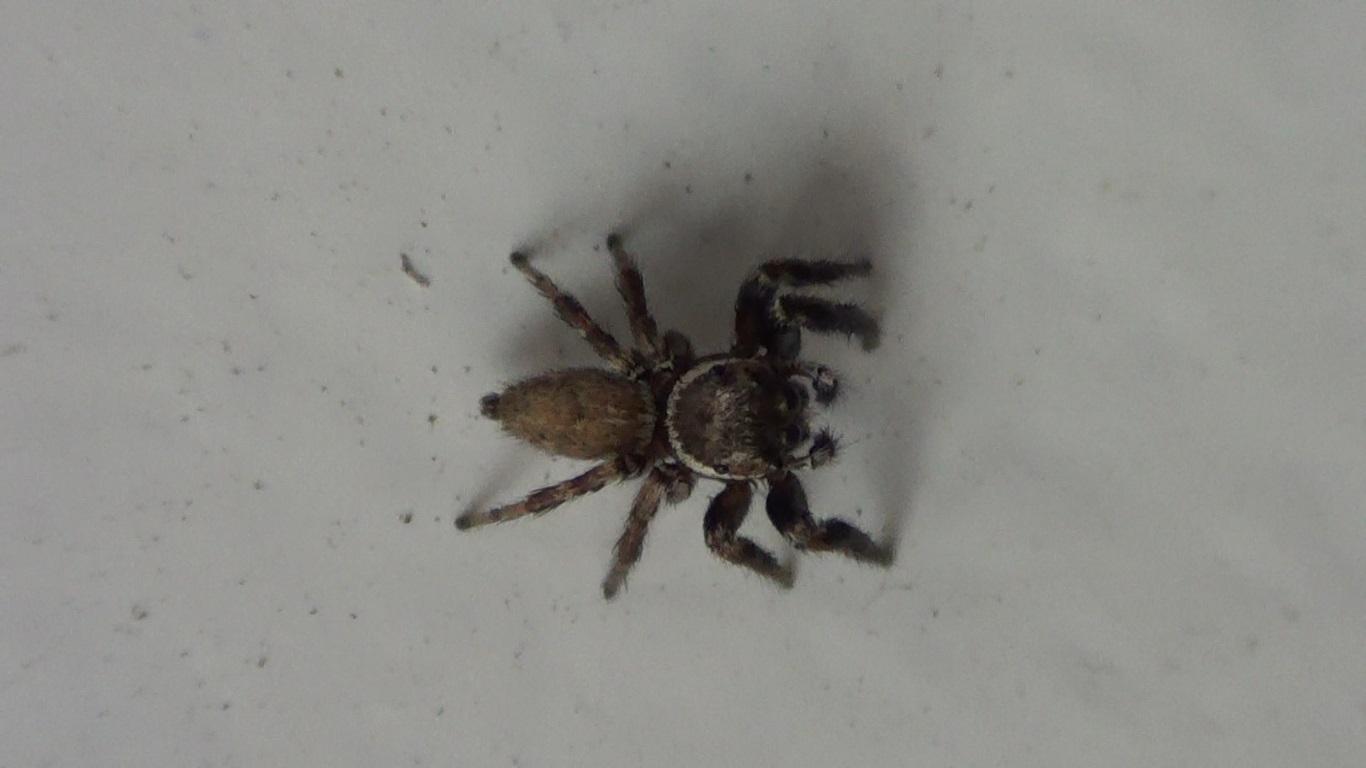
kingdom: Animalia
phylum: Arthropoda
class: Arachnida
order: Araneae
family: Salticidae
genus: Evarcha
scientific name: Evarcha jucunda
